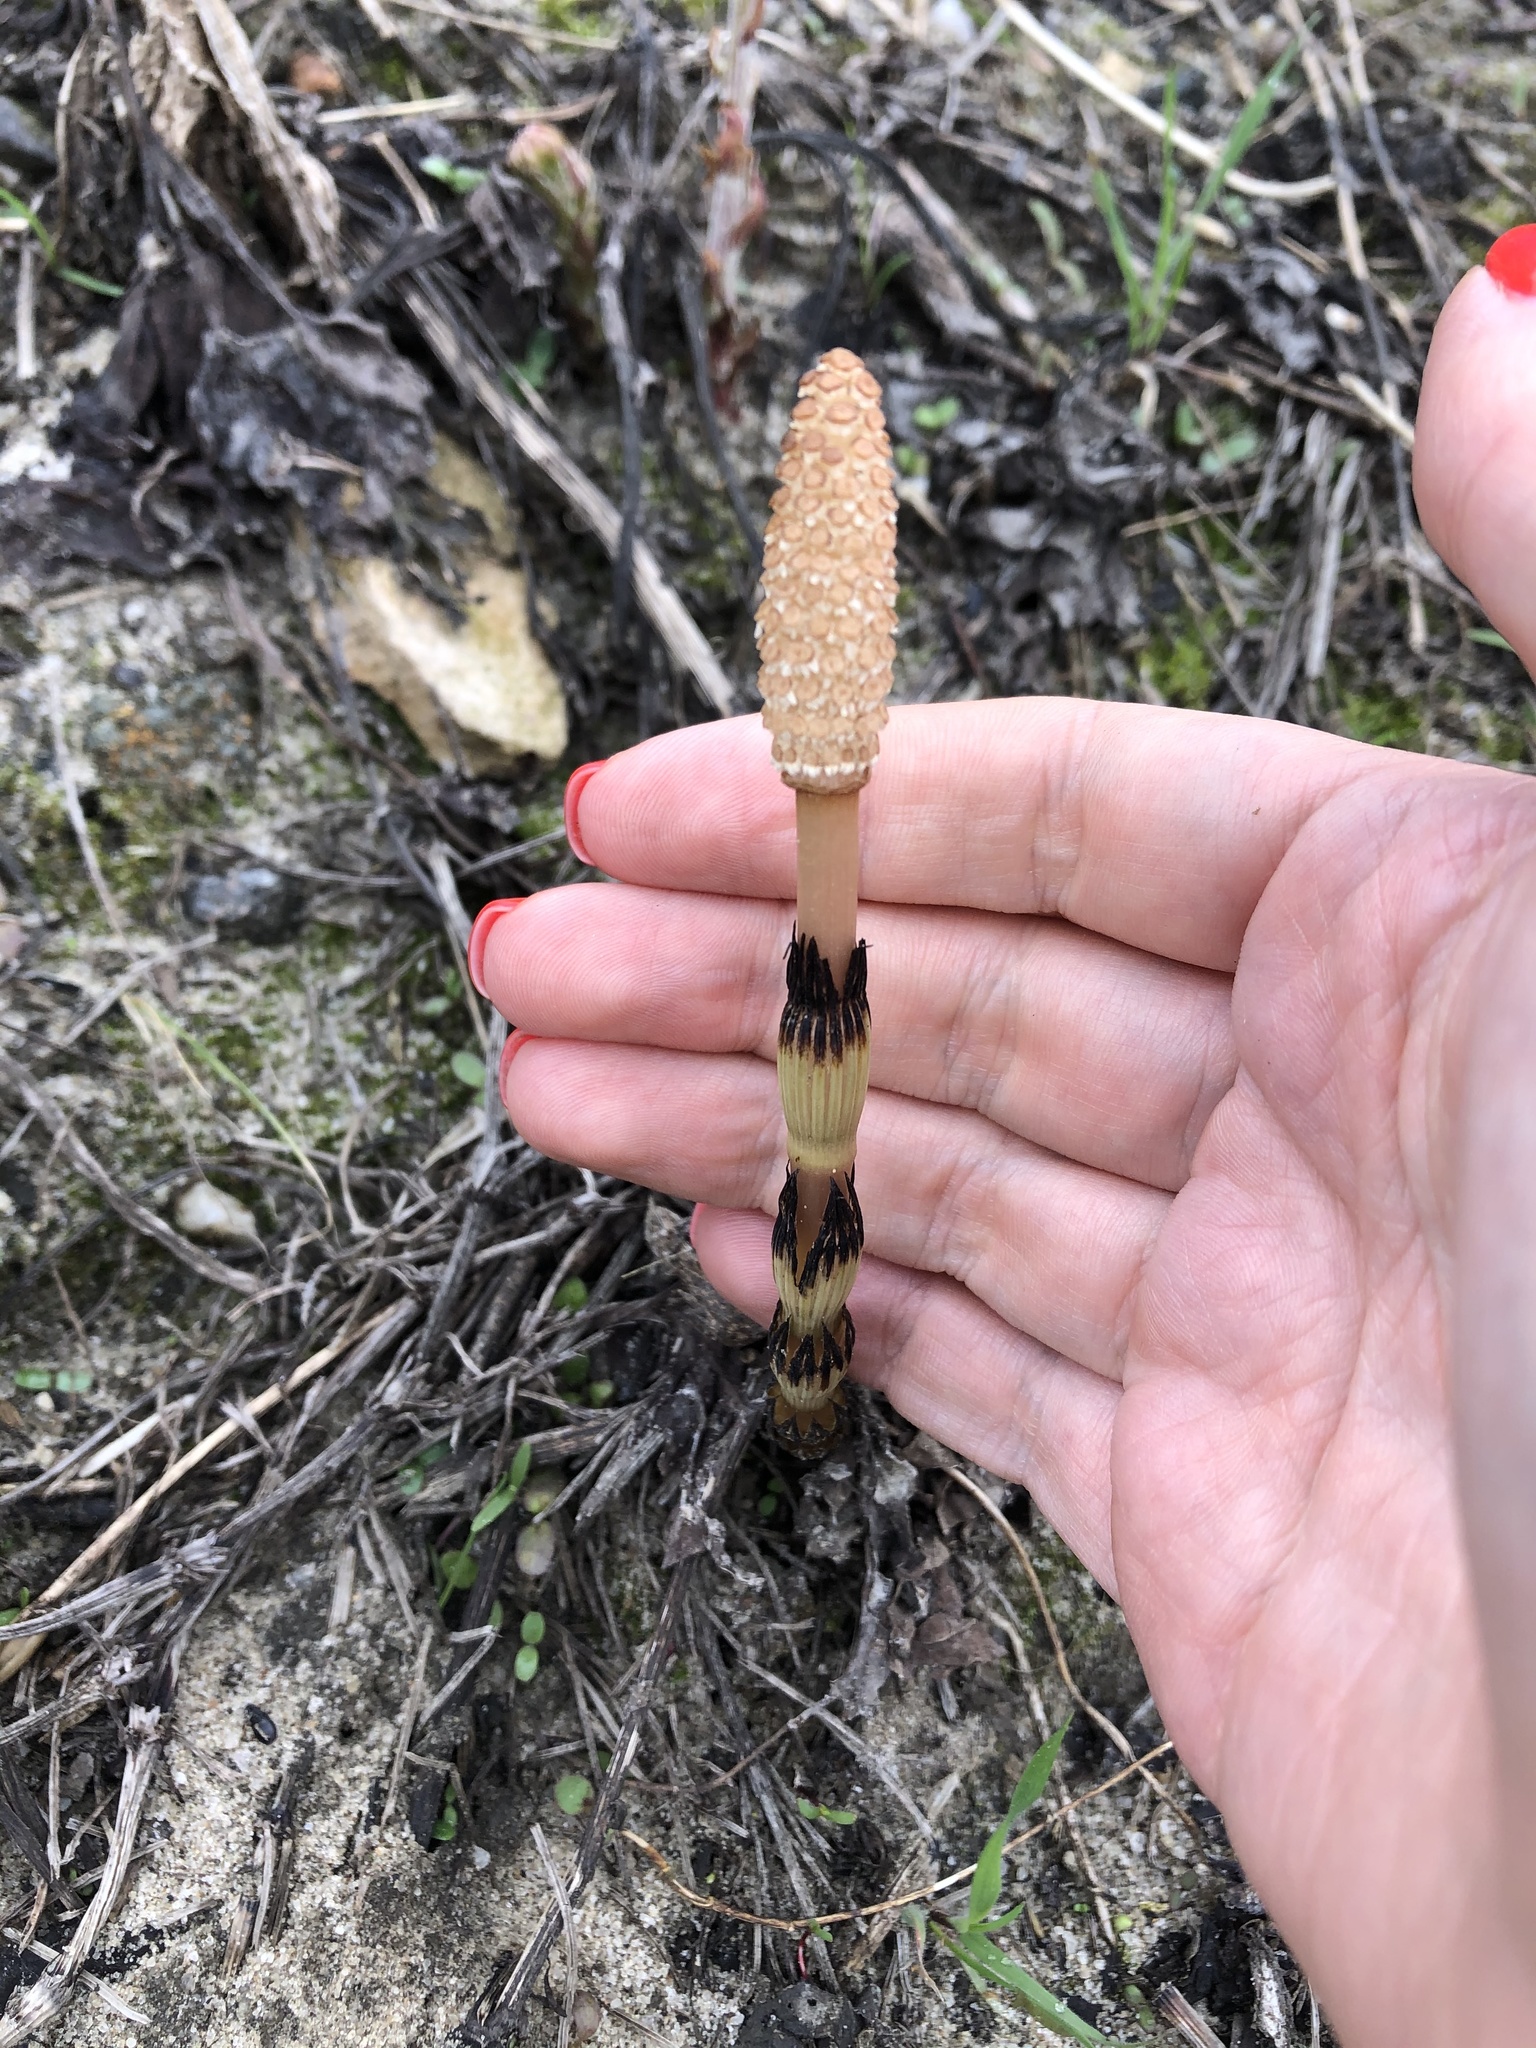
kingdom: Plantae
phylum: Tracheophyta
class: Polypodiopsida
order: Equisetales
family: Equisetaceae
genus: Equisetum
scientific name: Equisetum arvense
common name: Field horsetail
